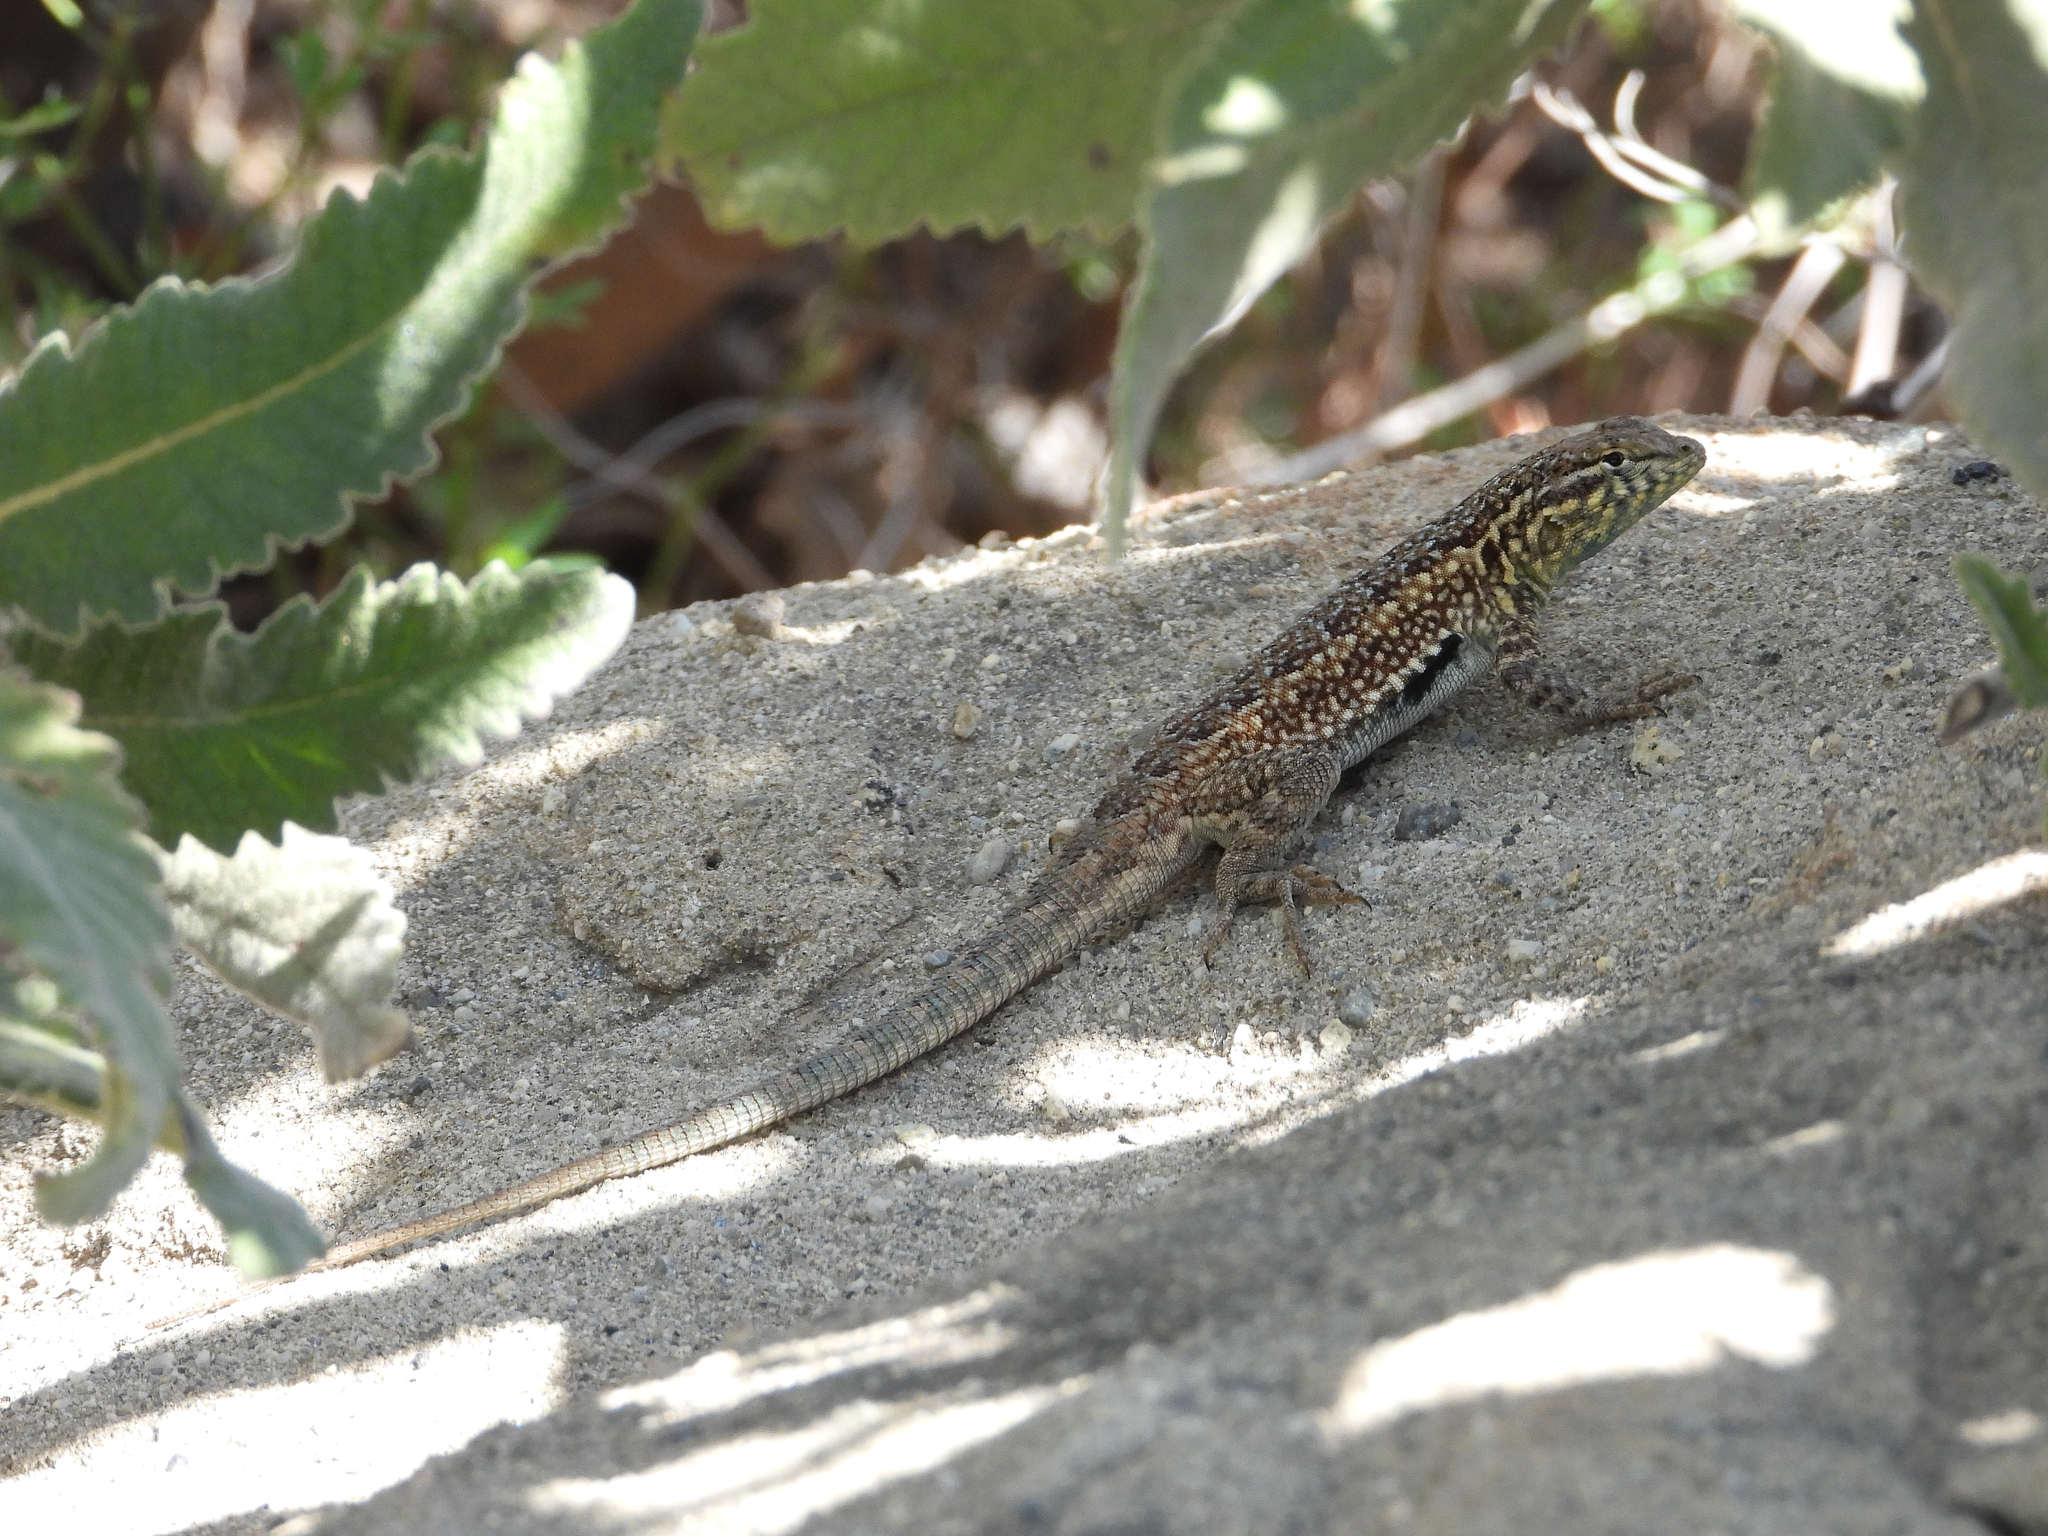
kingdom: Animalia
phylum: Chordata
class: Squamata
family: Phrynosomatidae
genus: Uta
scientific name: Uta stansburiana
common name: Side-blotched lizard
